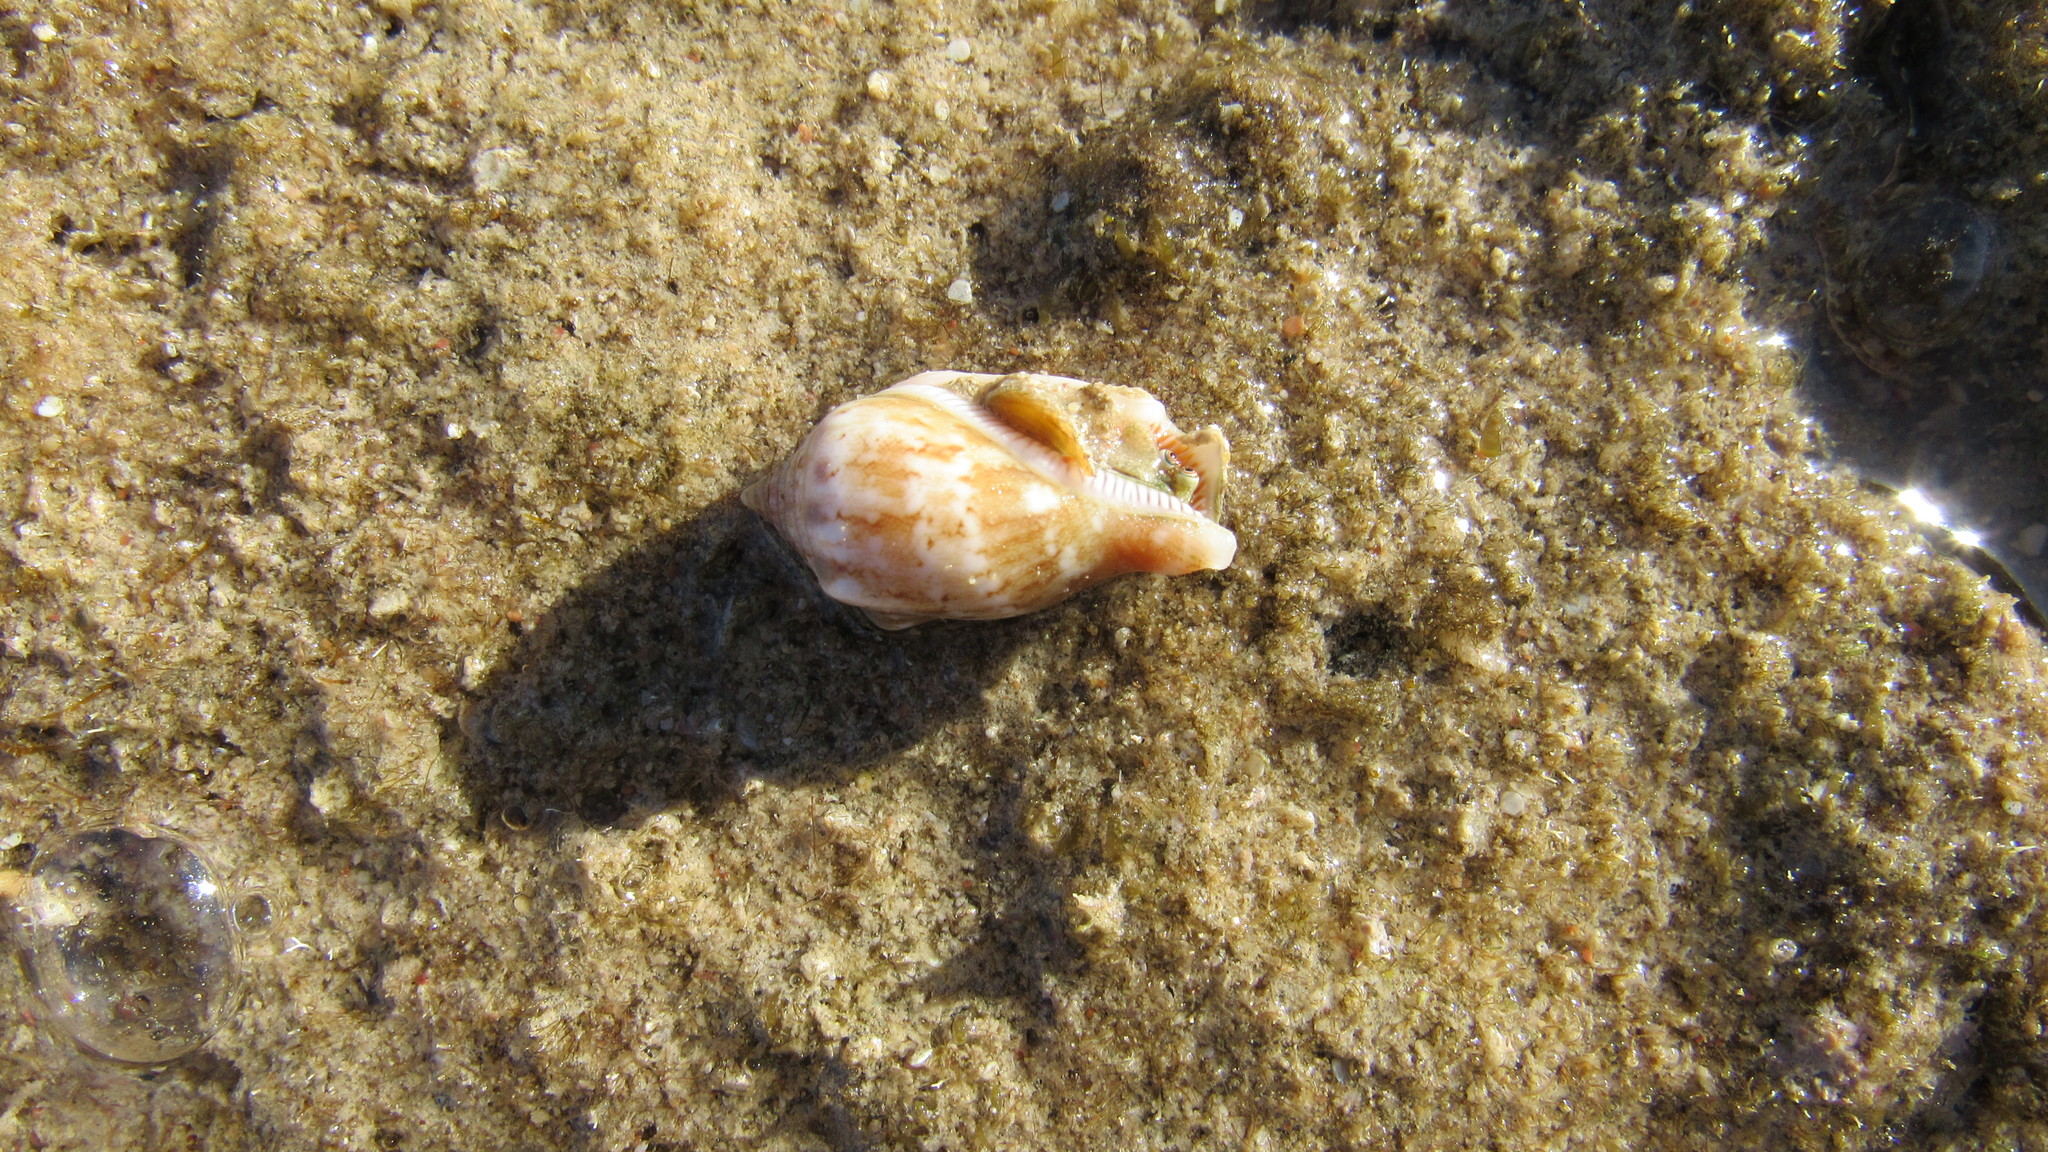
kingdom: Animalia
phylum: Mollusca
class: Gastropoda
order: Littorinimorpha
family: Strombidae
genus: Canarium
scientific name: Canarium mutabile
